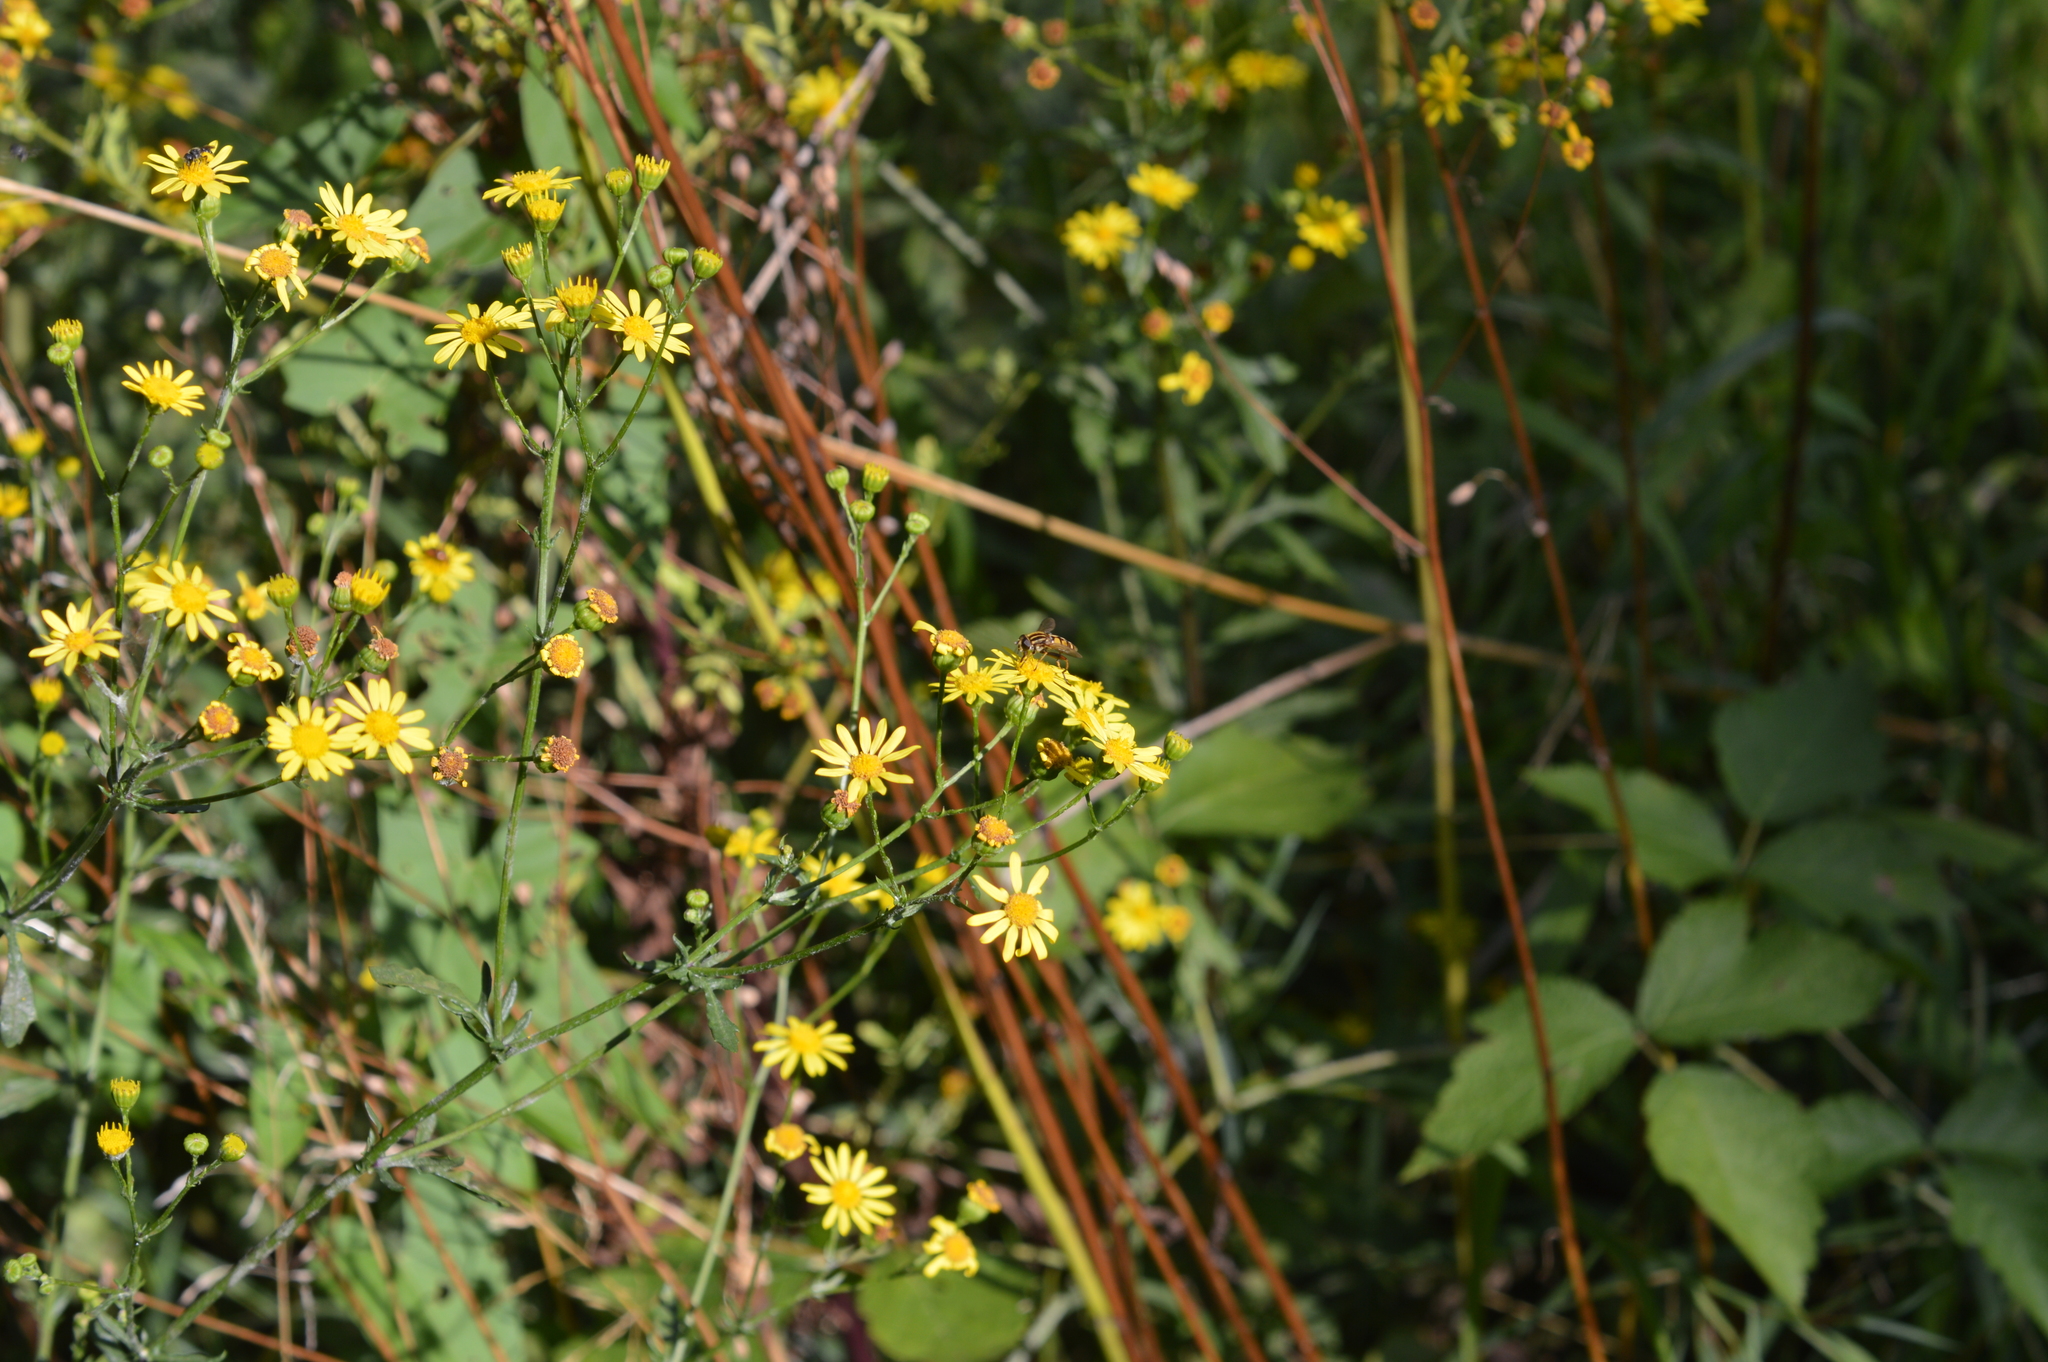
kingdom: Animalia
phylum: Arthropoda
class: Insecta
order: Diptera
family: Syrphidae
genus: Helophilus
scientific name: Helophilus pendulus
